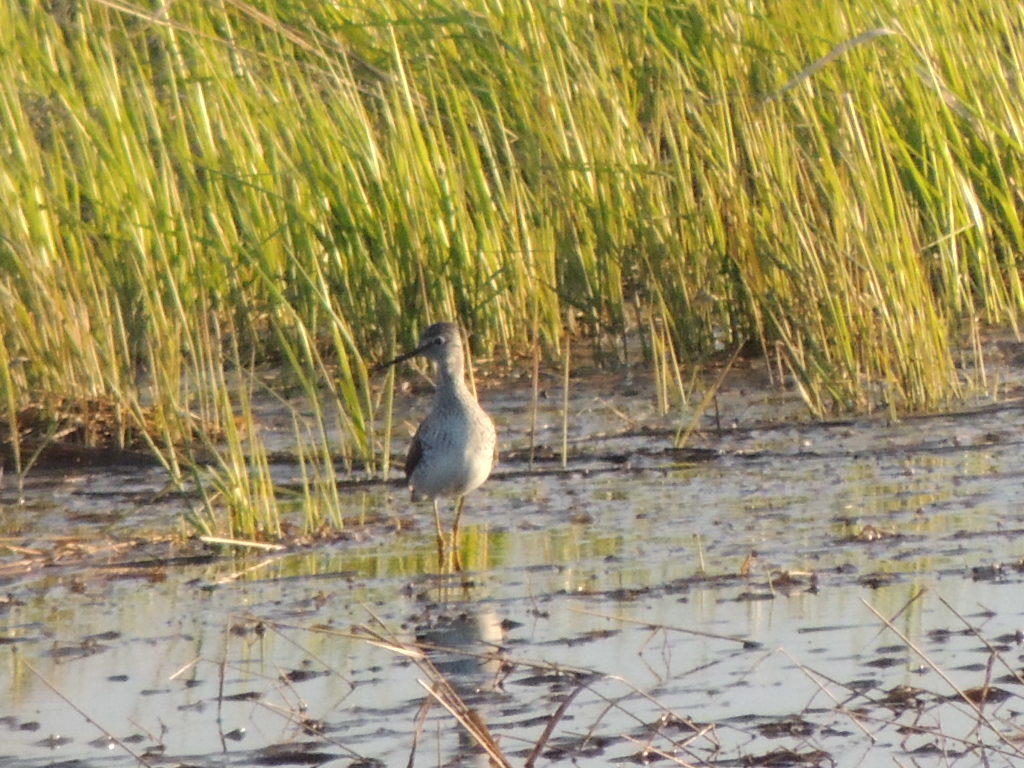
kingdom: Animalia
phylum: Chordata
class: Aves
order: Charadriiformes
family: Scolopacidae
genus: Tringa
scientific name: Tringa melanoleuca
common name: Greater yellowlegs
